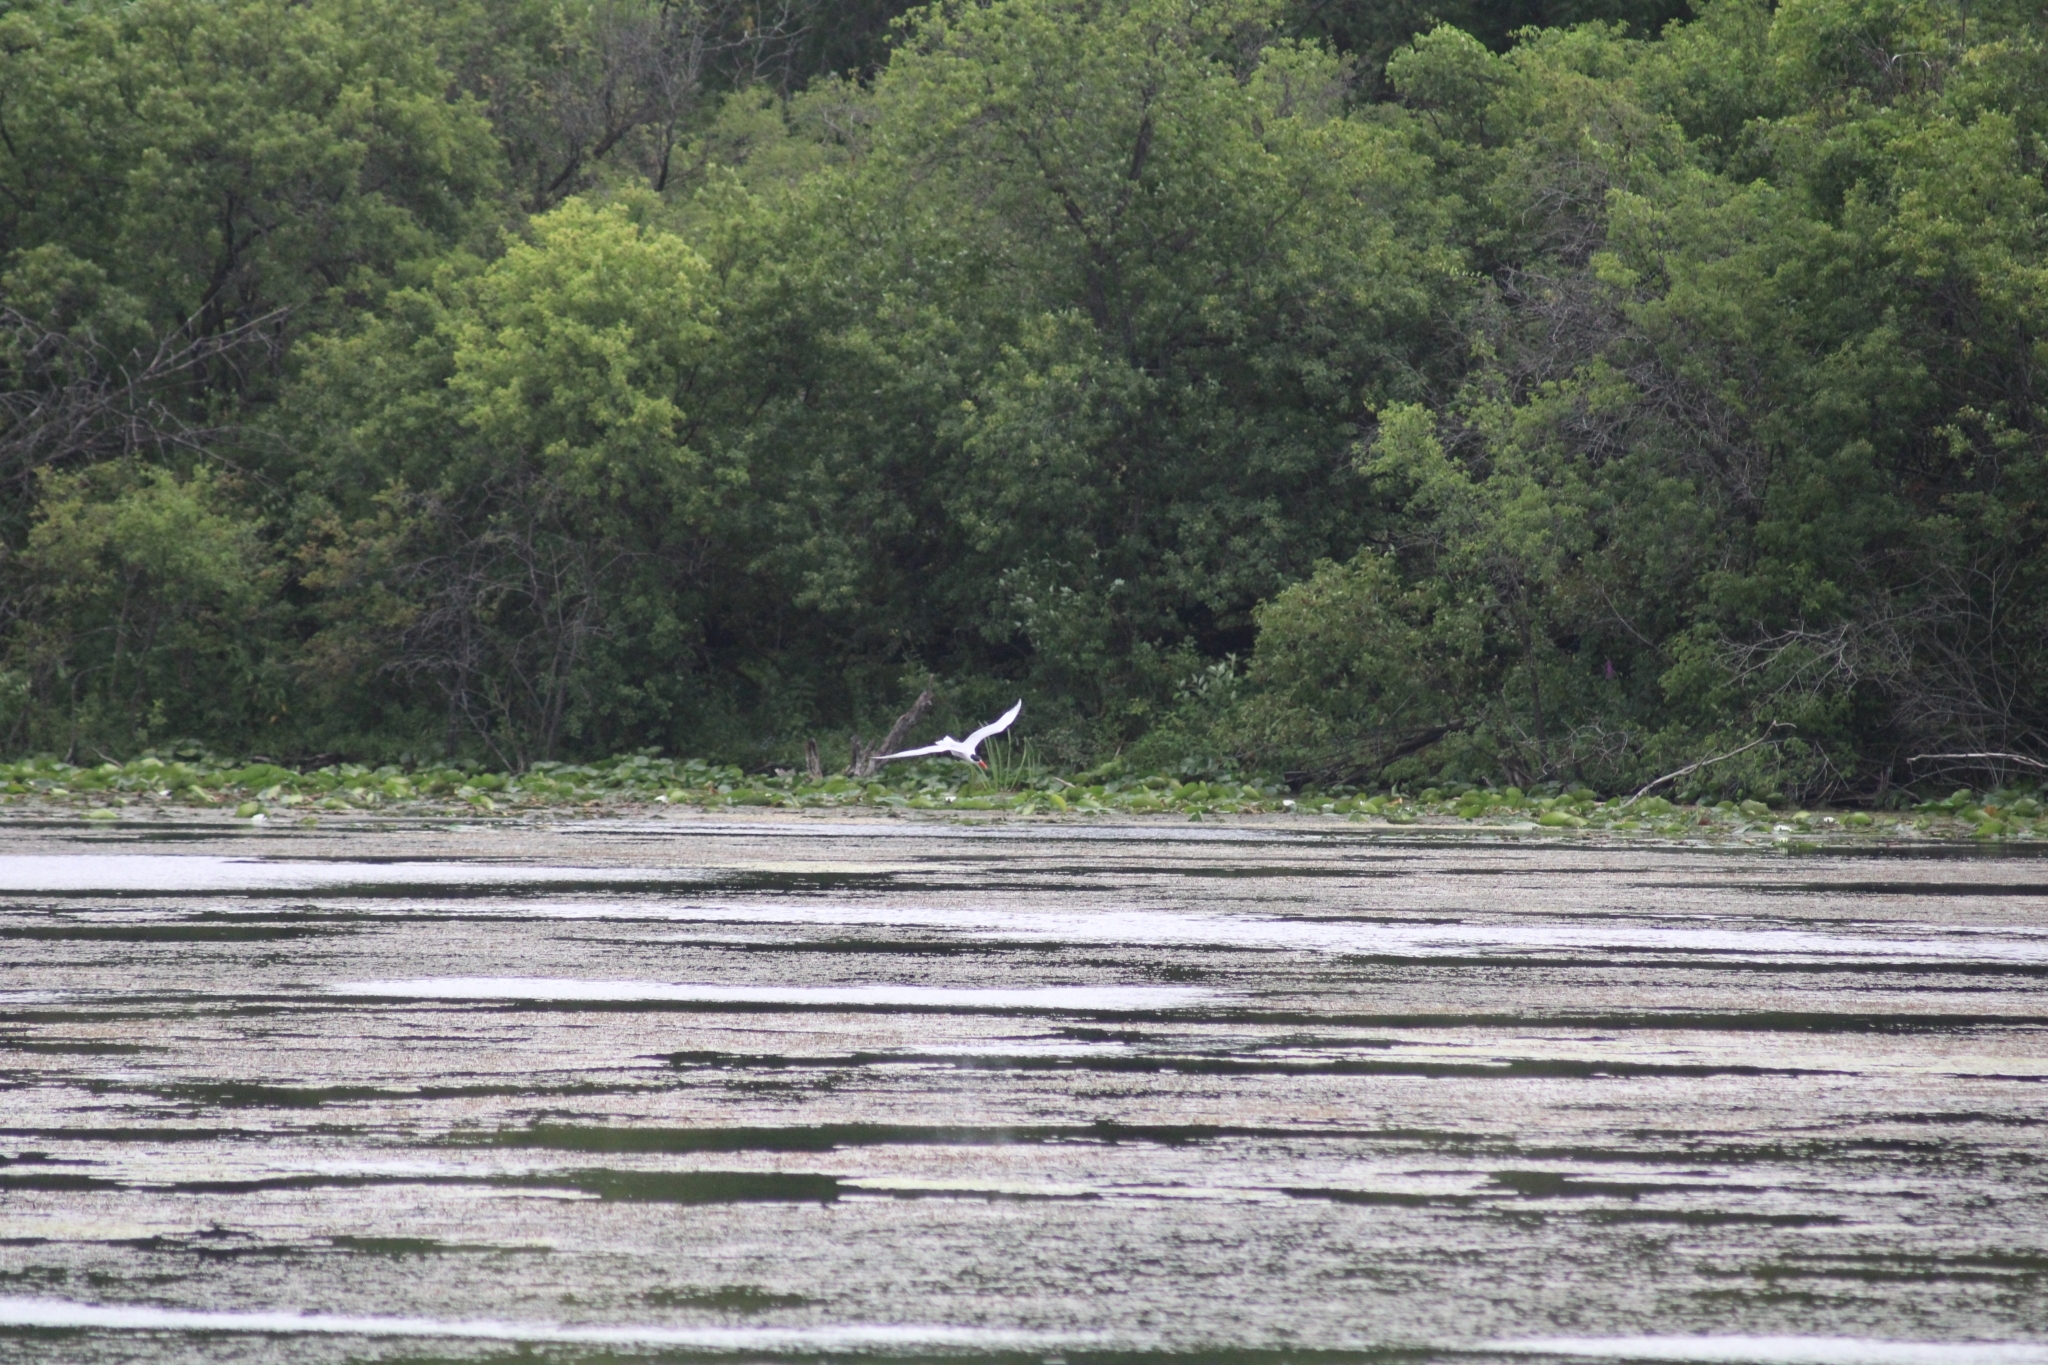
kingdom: Animalia
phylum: Chordata
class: Aves
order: Charadriiformes
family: Laridae
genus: Hydroprogne
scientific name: Hydroprogne caspia
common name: Caspian tern
